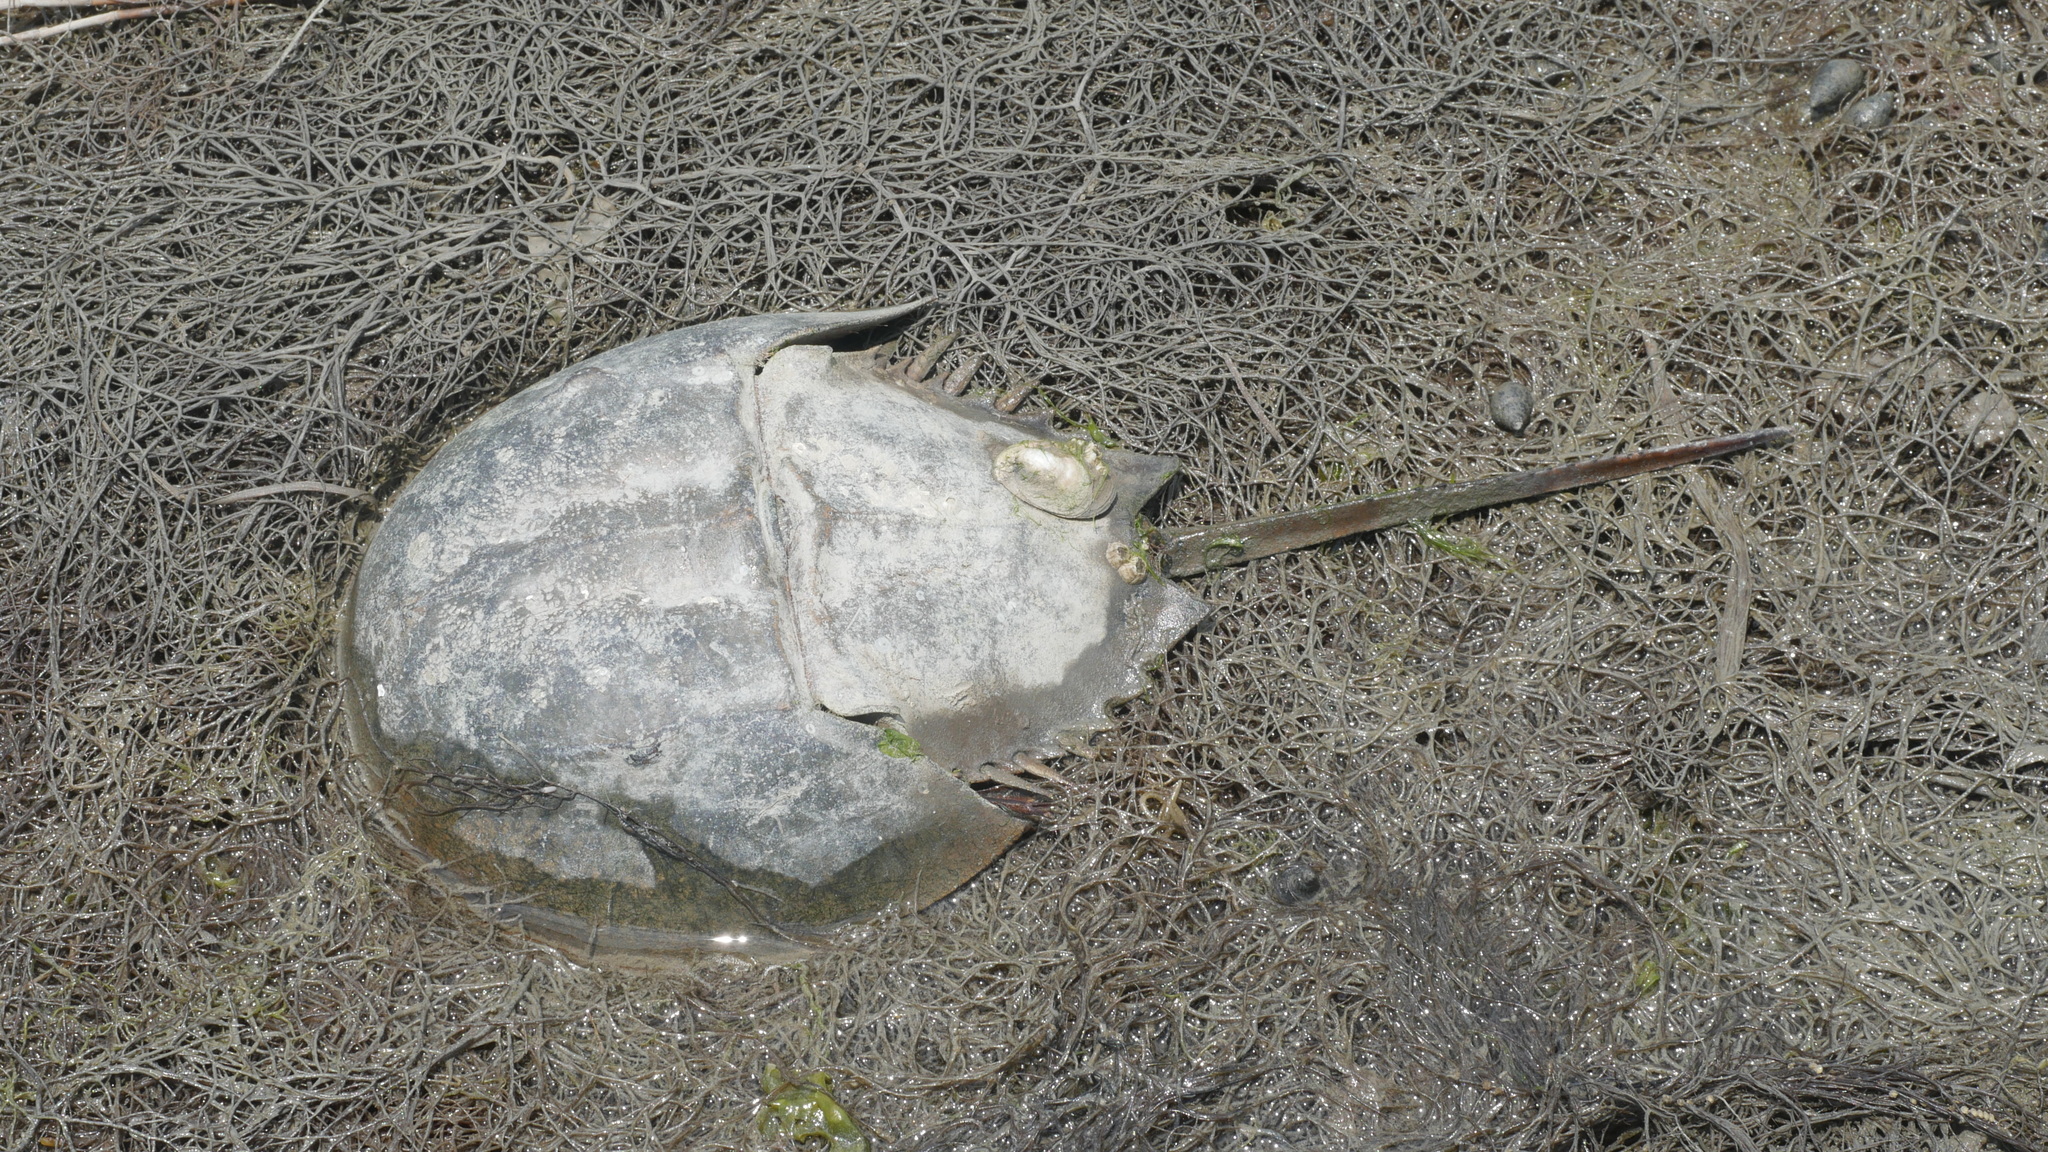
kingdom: Animalia
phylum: Arthropoda
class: Merostomata
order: Xiphosurida
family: Limulidae
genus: Limulus
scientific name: Limulus polyphemus
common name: Horseshoe crab
